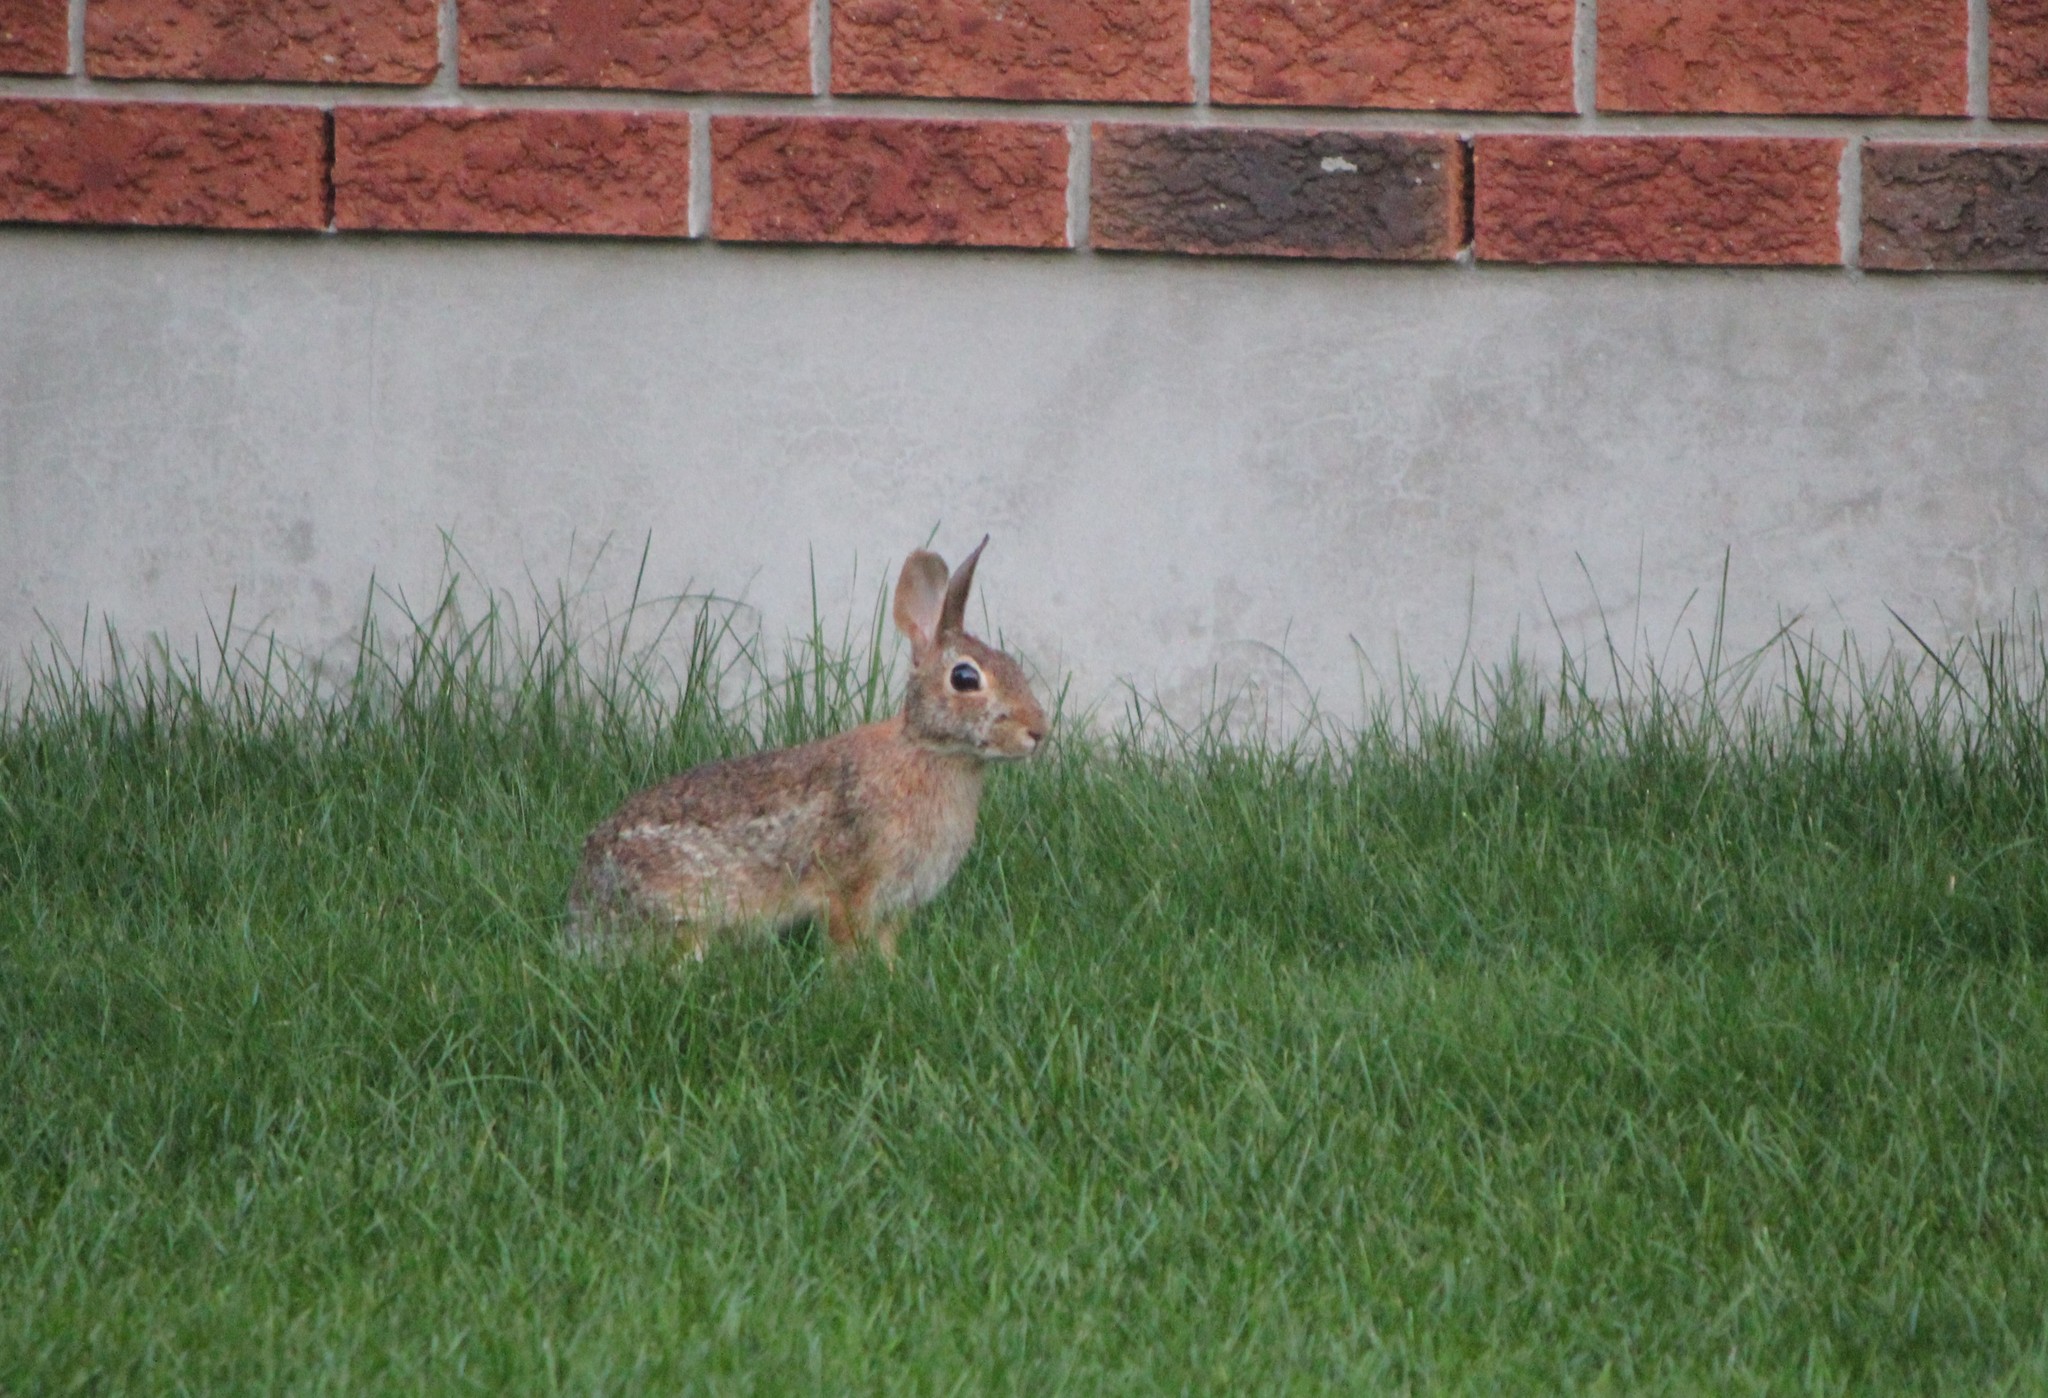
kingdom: Animalia
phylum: Chordata
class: Mammalia
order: Lagomorpha
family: Leporidae
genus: Sylvilagus
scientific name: Sylvilagus floridanus
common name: Eastern cottontail
